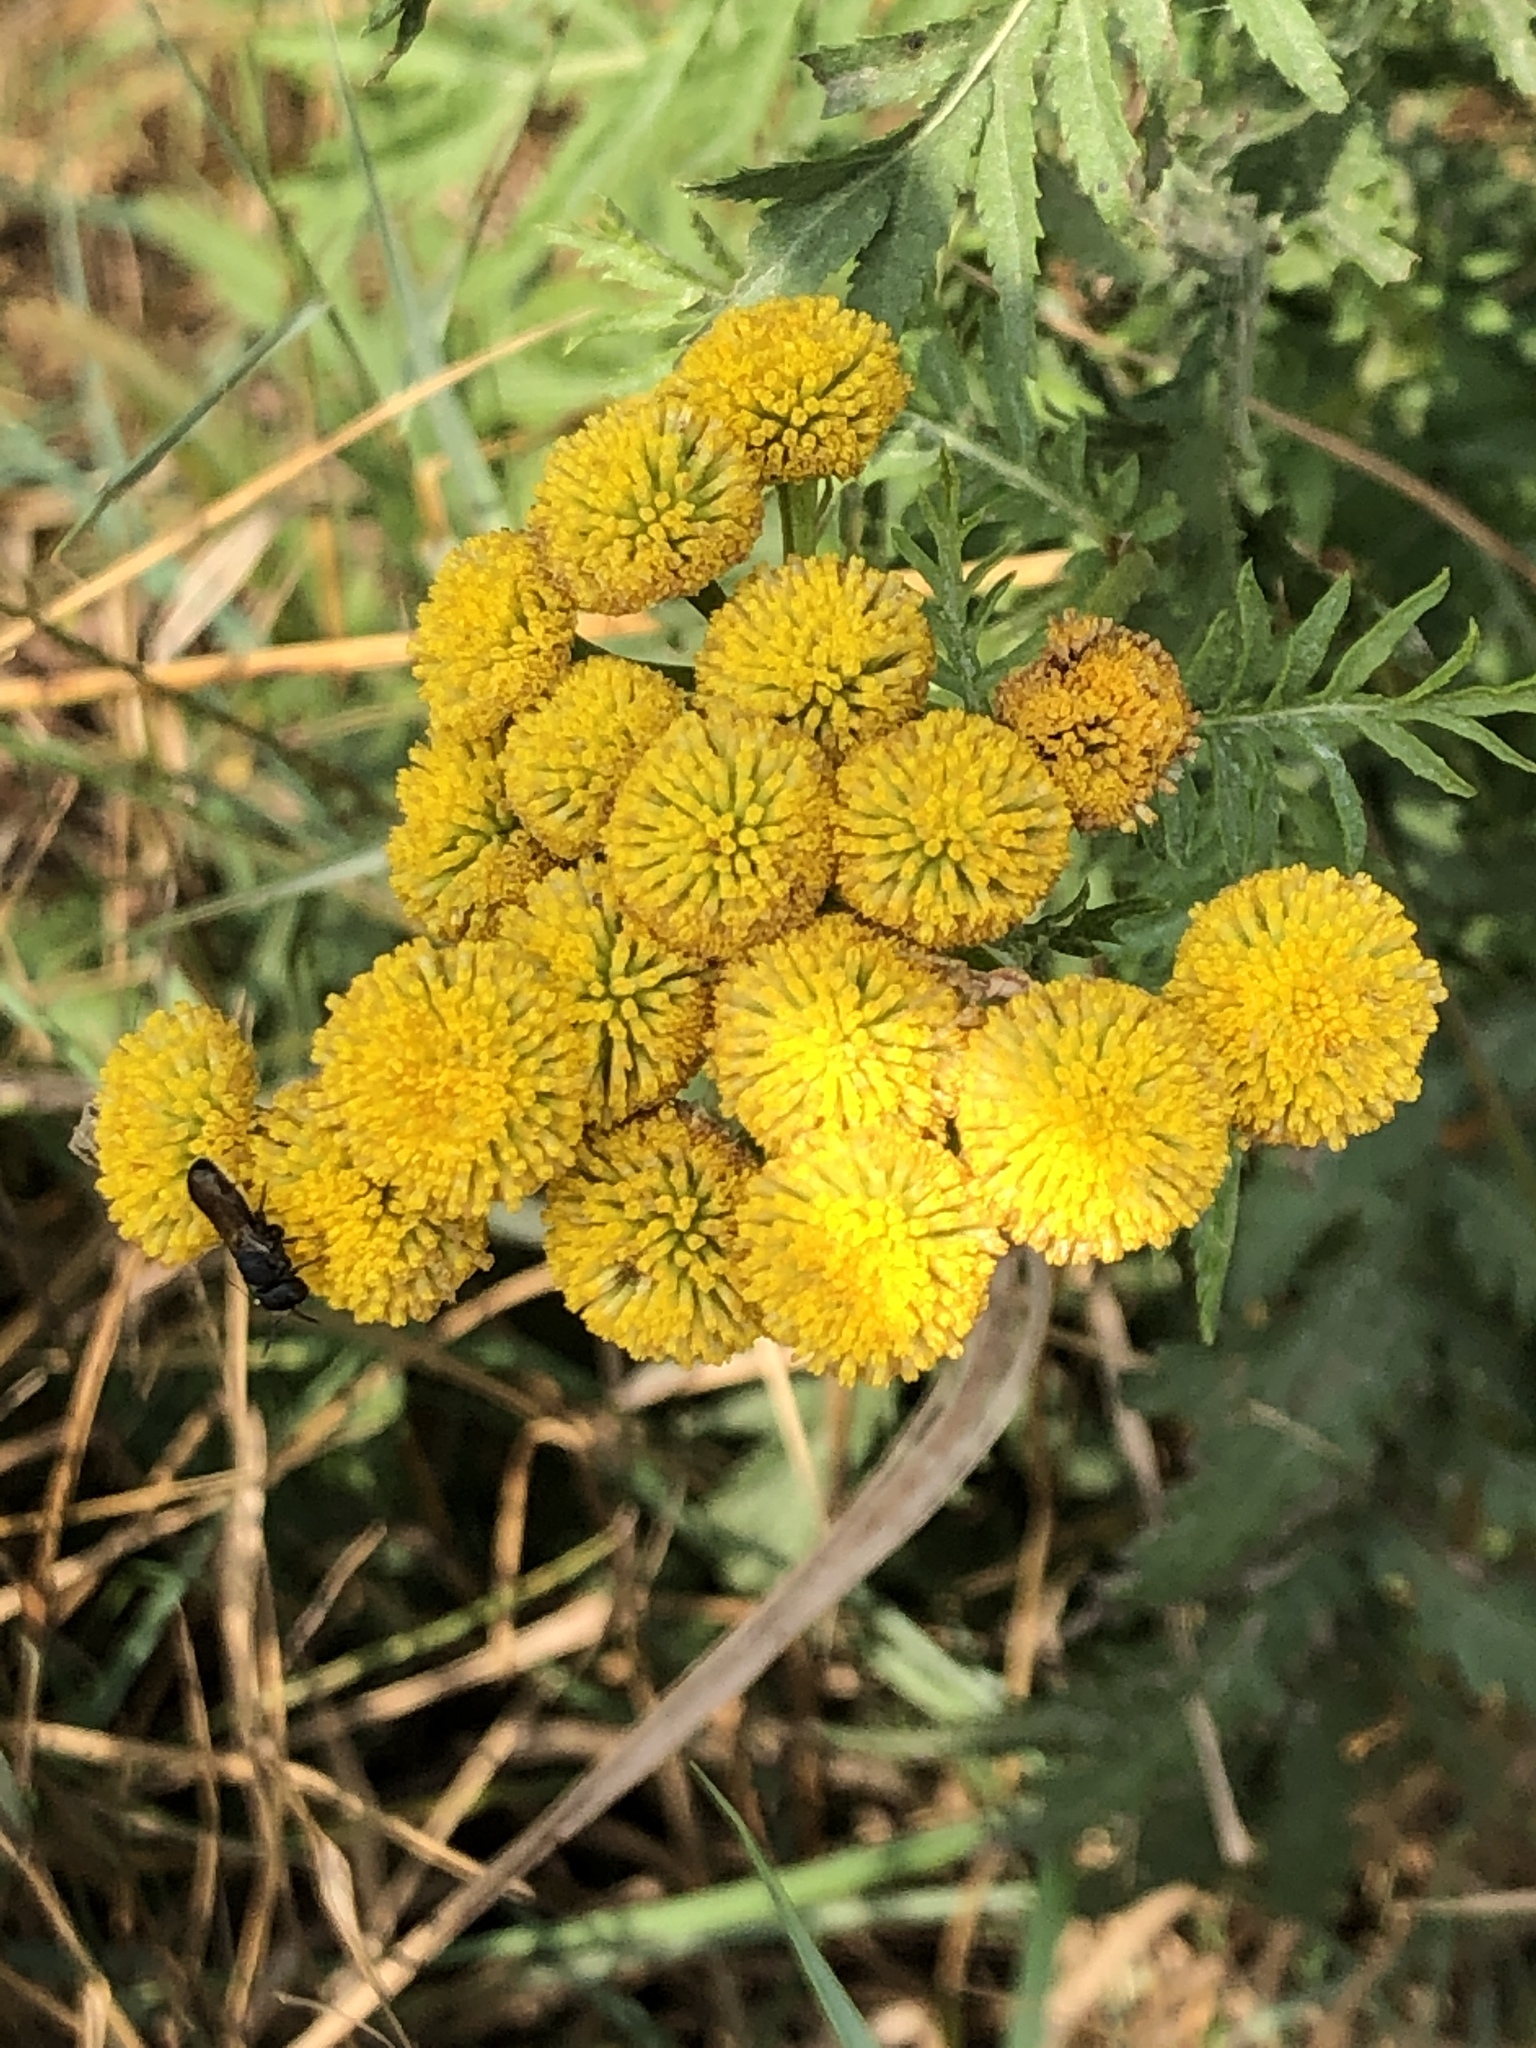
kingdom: Plantae
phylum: Tracheophyta
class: Magnoliopsida
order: Asterales
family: Asteraceae
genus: Tanacetum
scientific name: Tanacetum vulgare
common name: Common tansy
